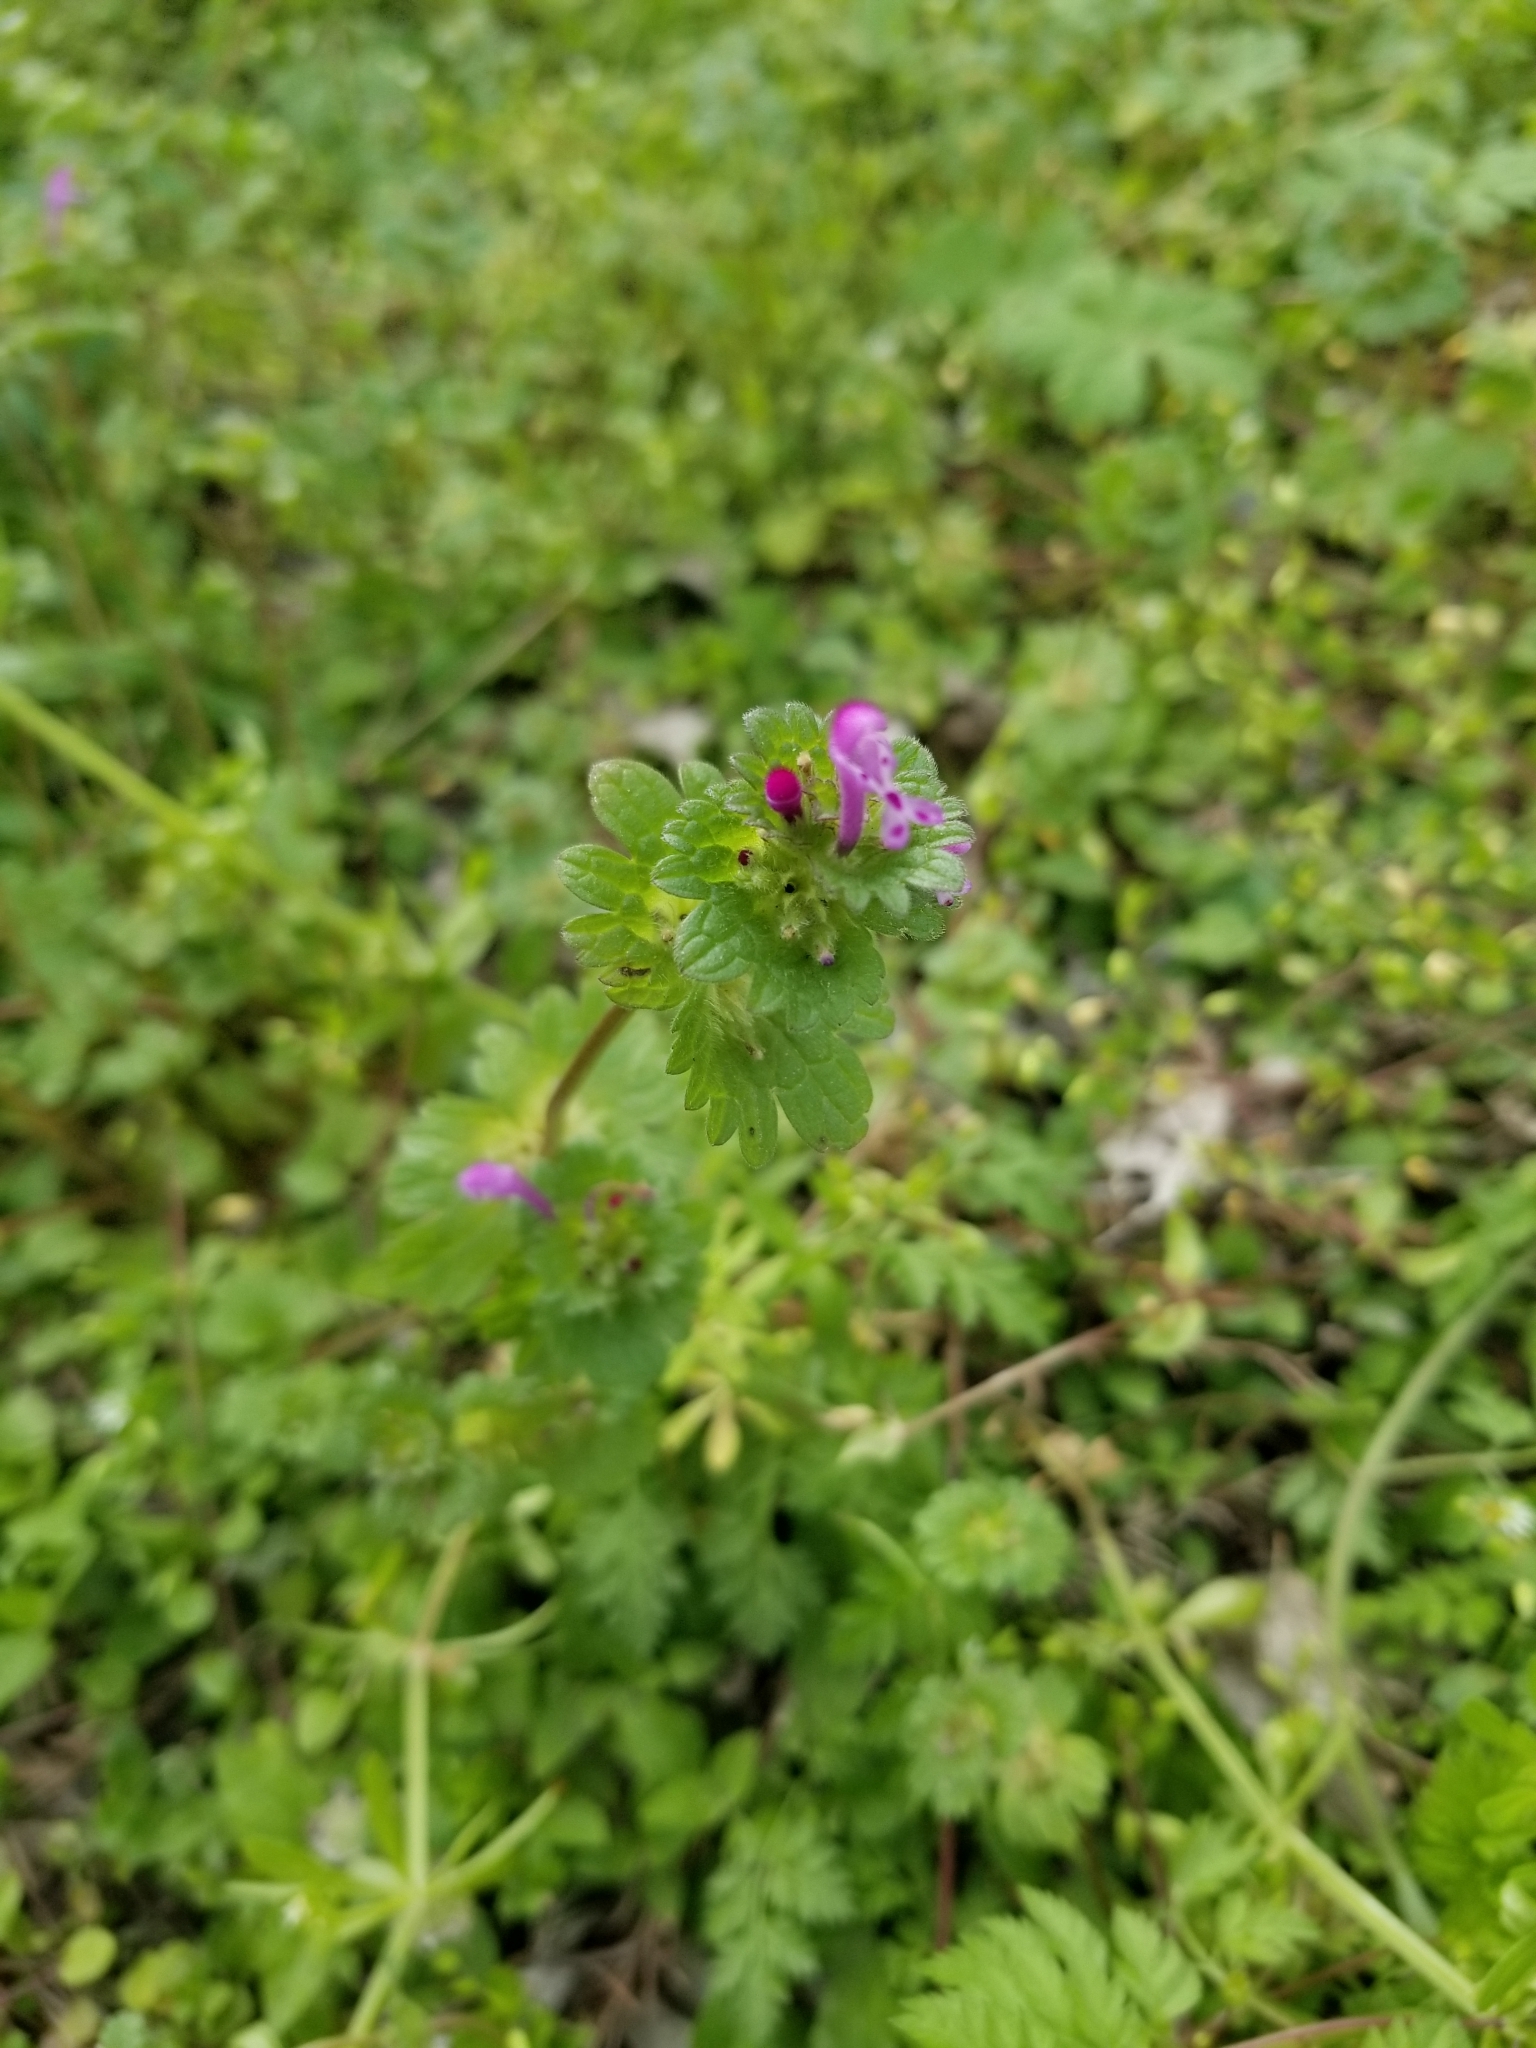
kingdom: Plantae
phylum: Tracheophyta
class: Magnoliopsida
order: Lamiales
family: Lamiaceae
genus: Lamium
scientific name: Lamium amplexicaule
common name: Henbit dead-nettle
